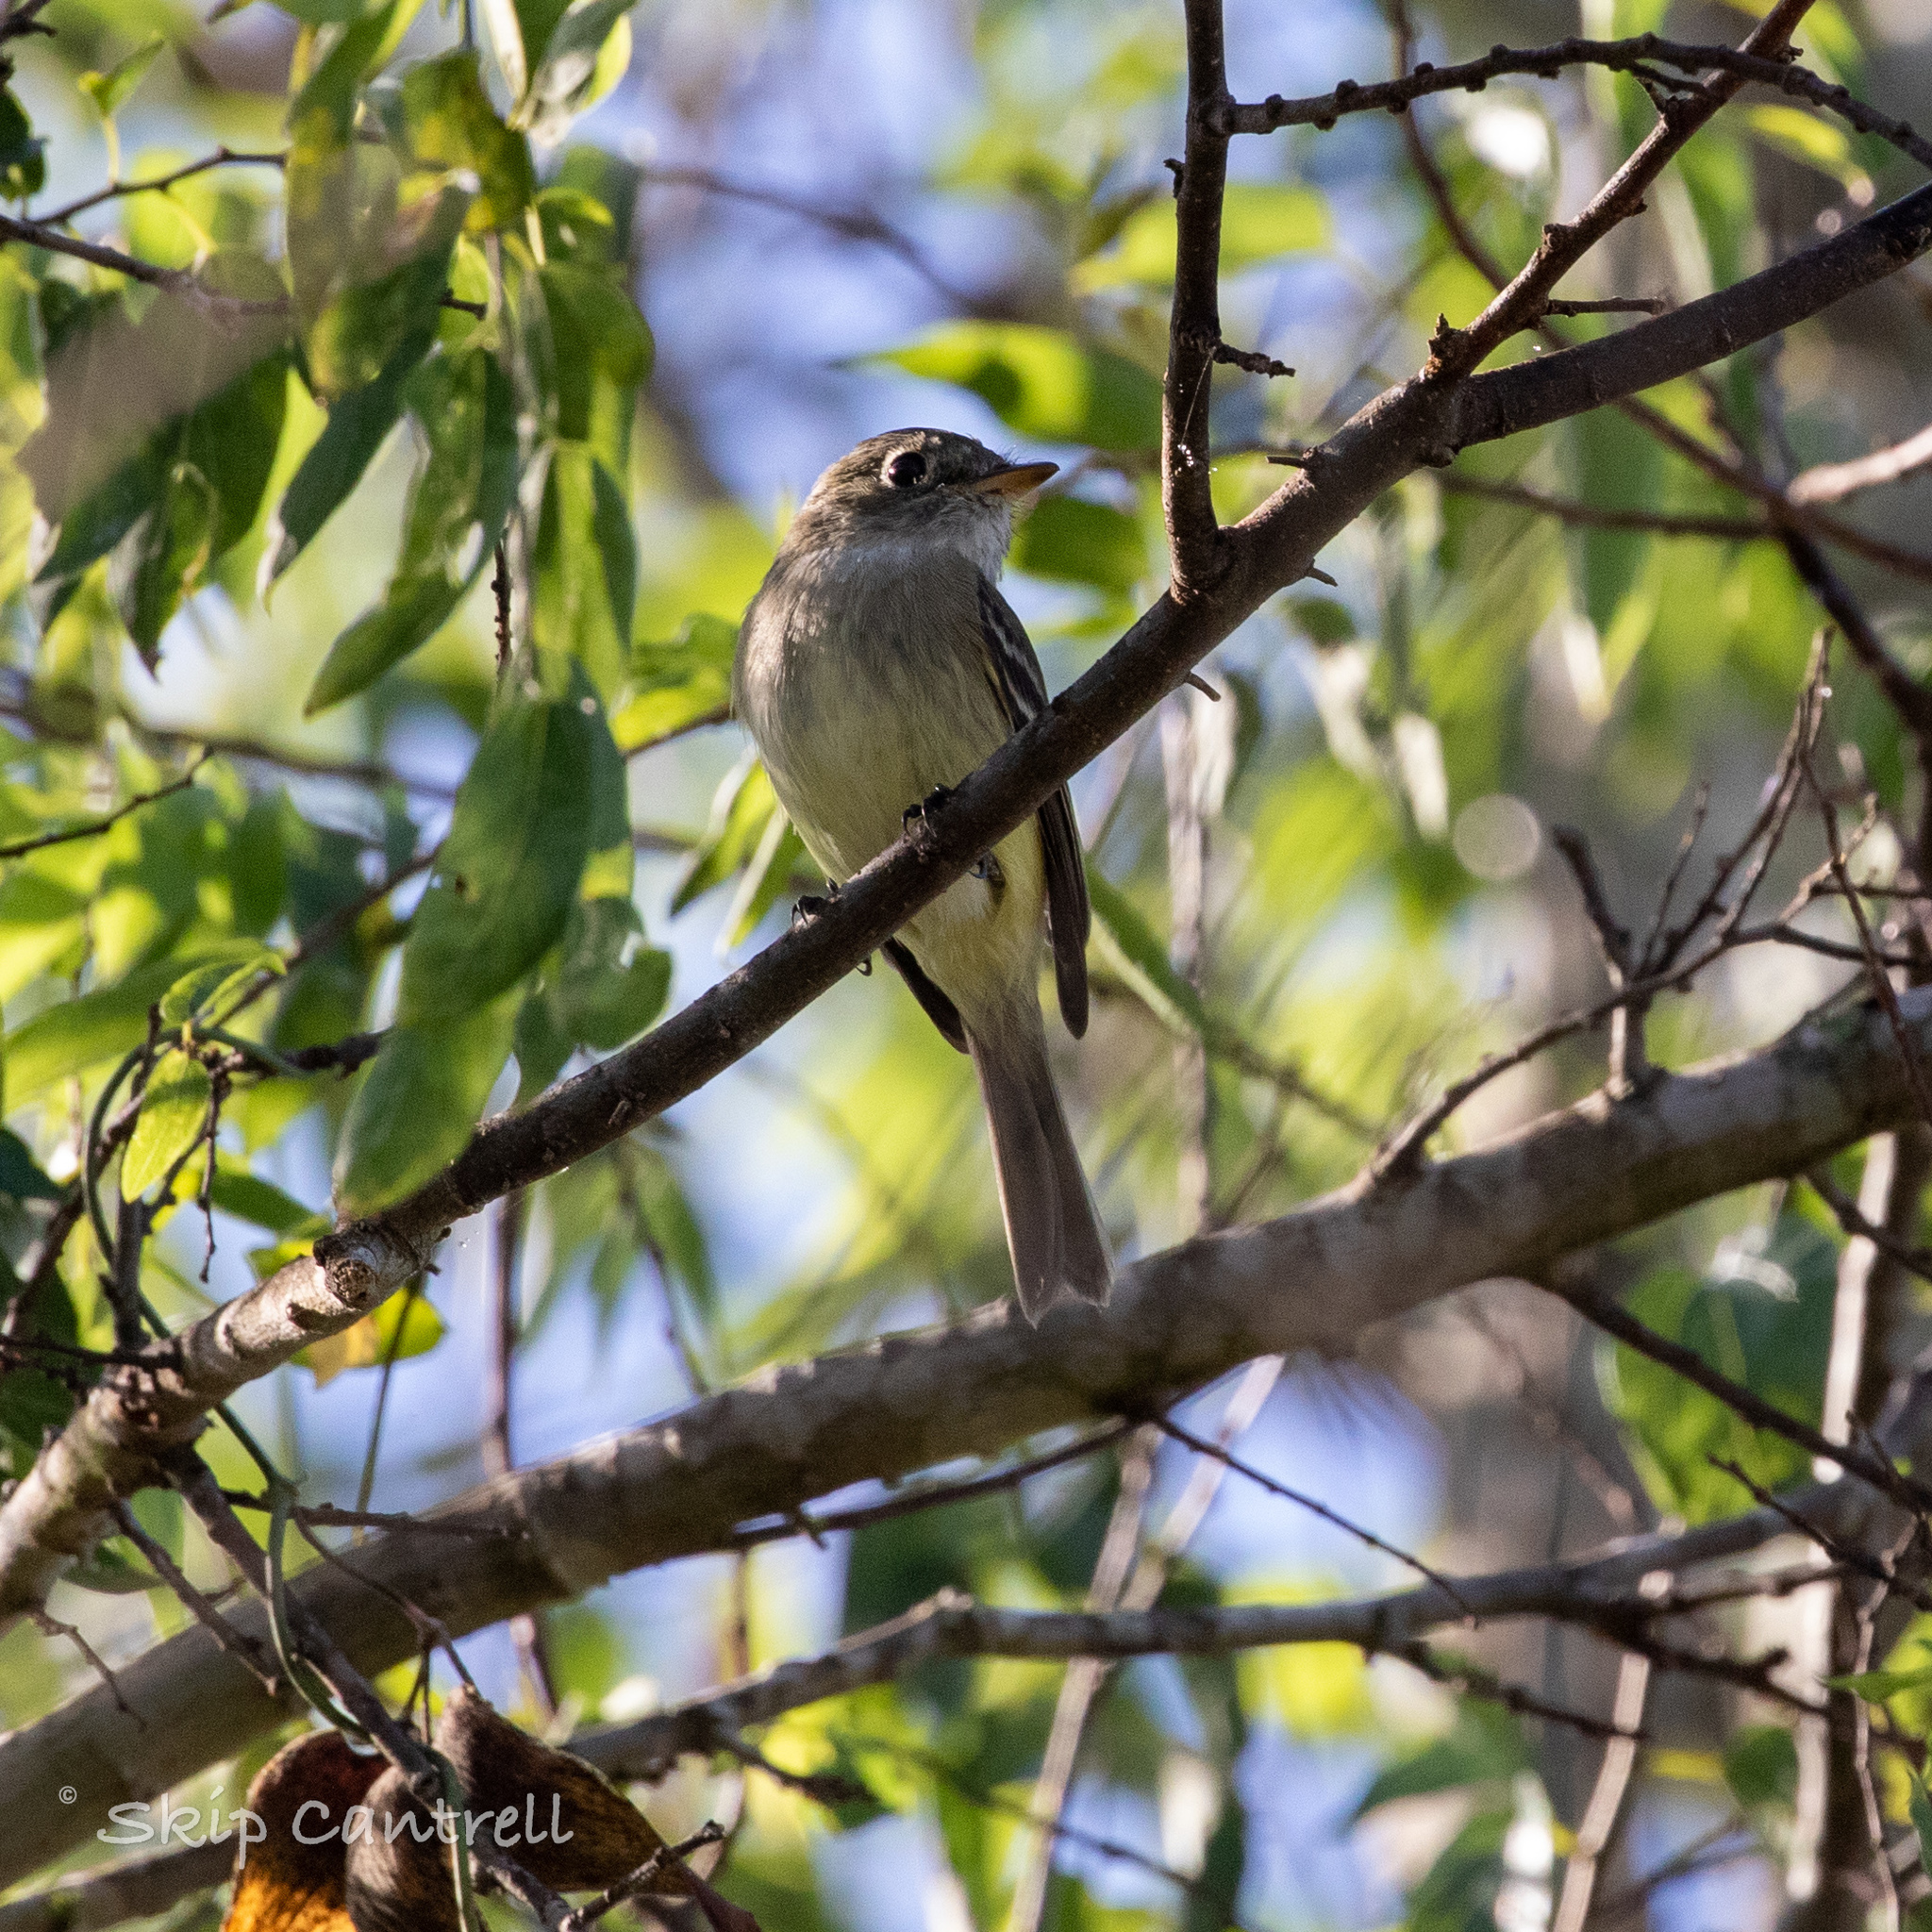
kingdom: Animalia
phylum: Chordata
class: Aves
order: Passeriformes
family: Tyrannidae
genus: Empidonax
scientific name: Empidonax minimus
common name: Least flycatcher
